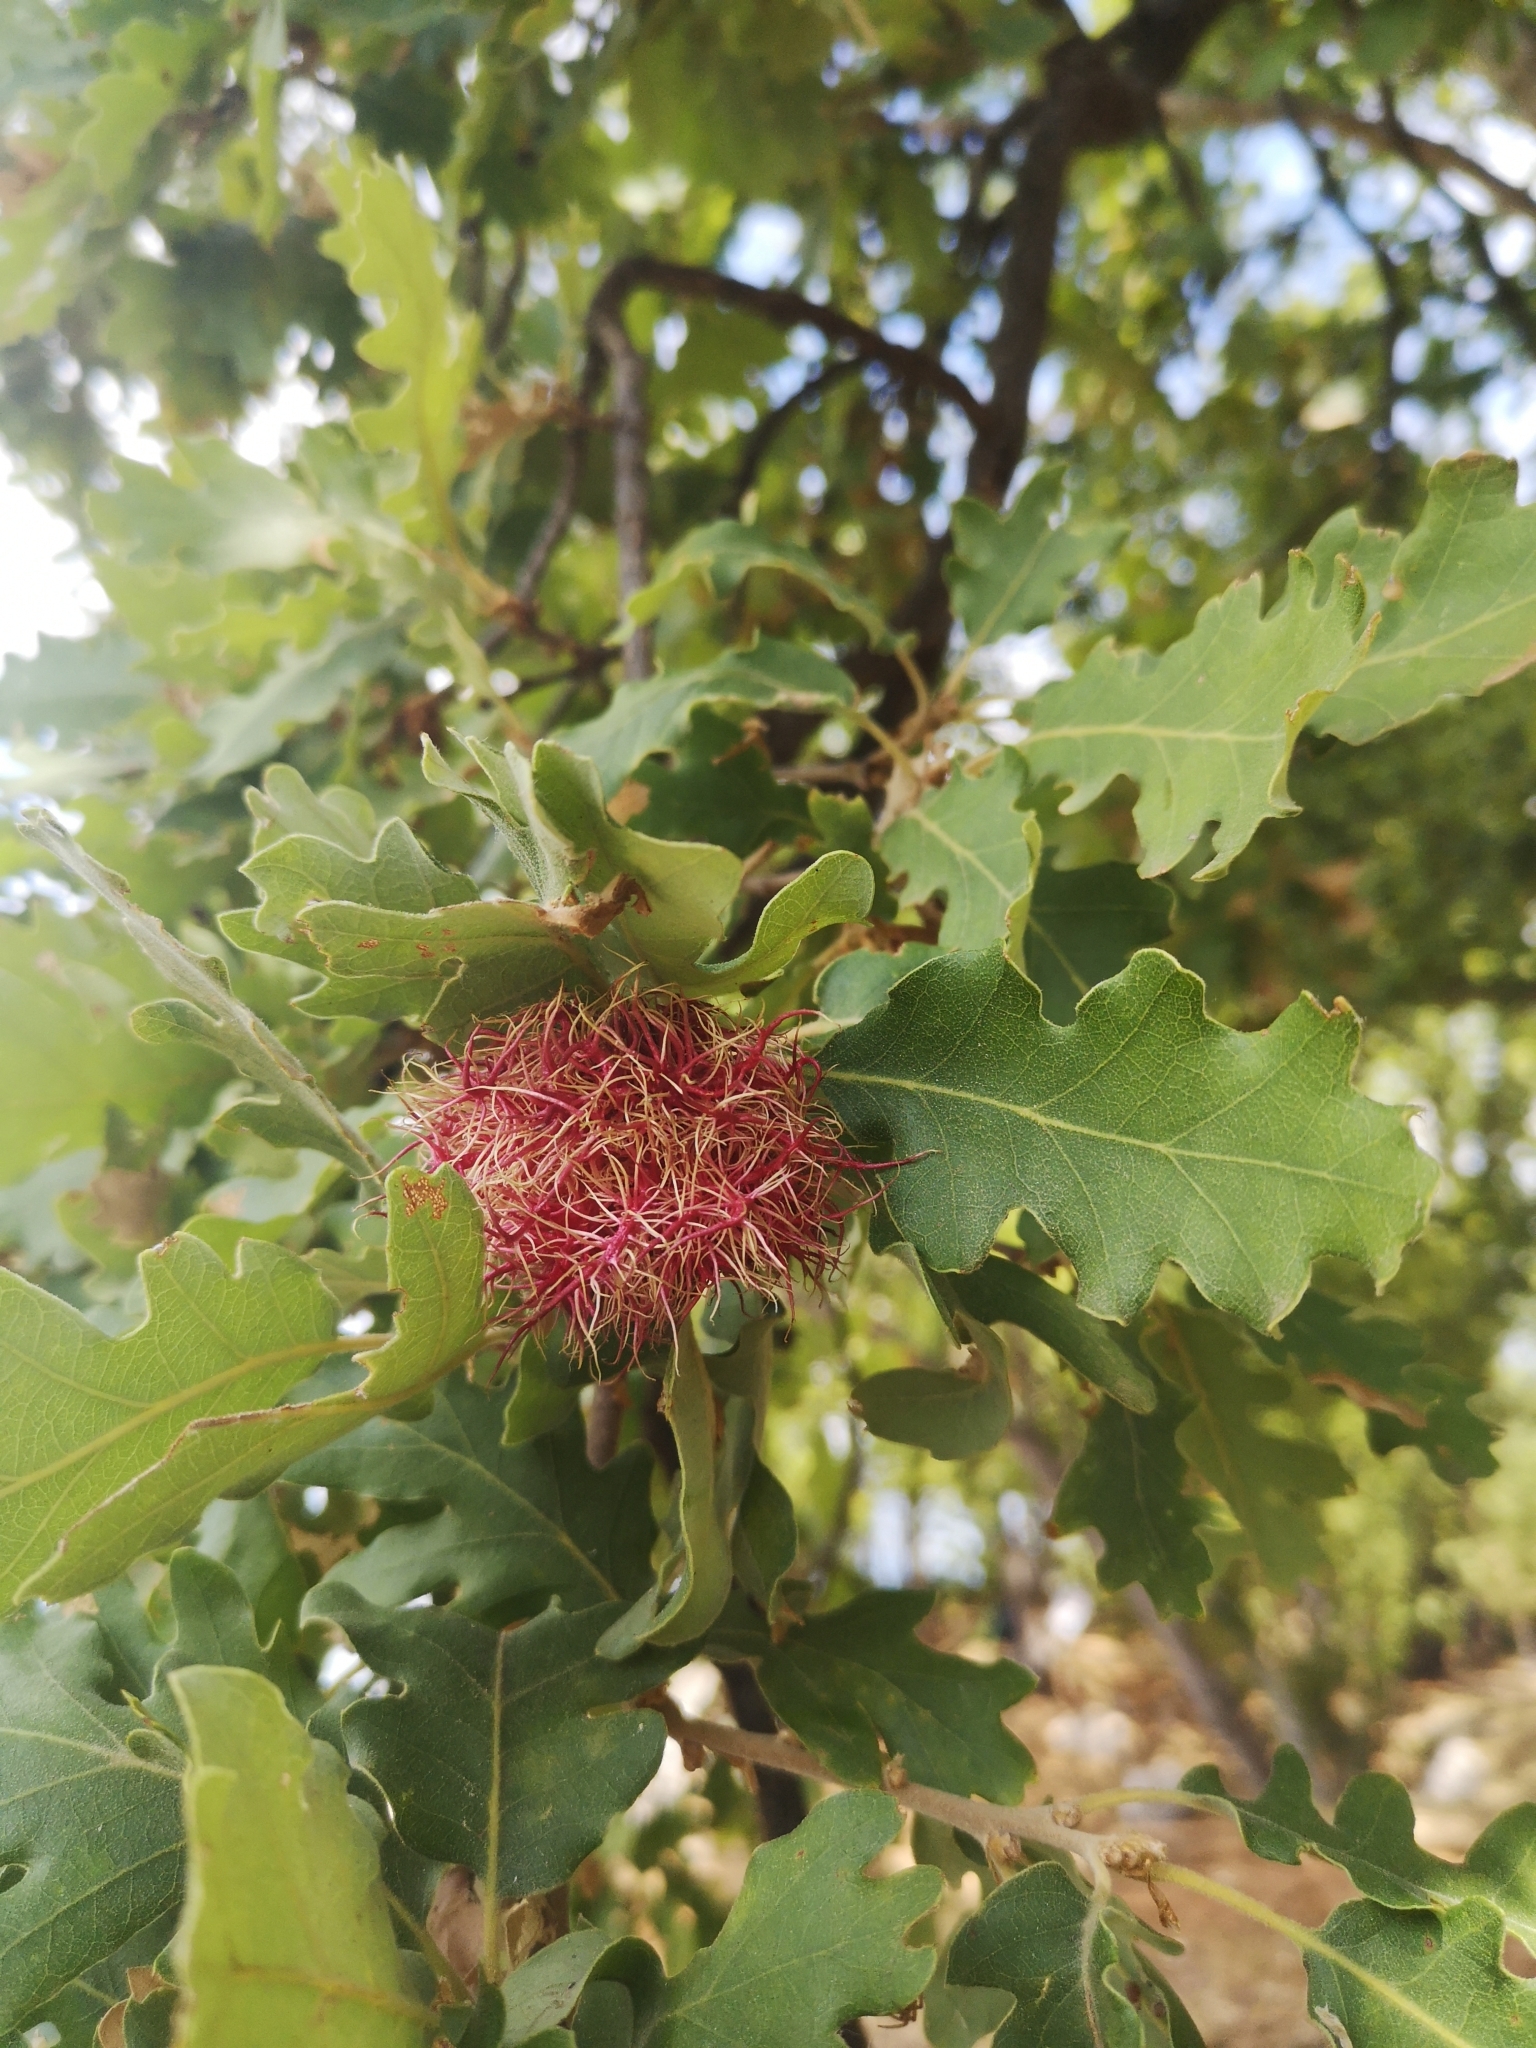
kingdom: Animalia
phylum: Arthropoda
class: Insecta
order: Hymenoptera
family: Cynipidae
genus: Andricus
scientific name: Andricus caputmedusae
